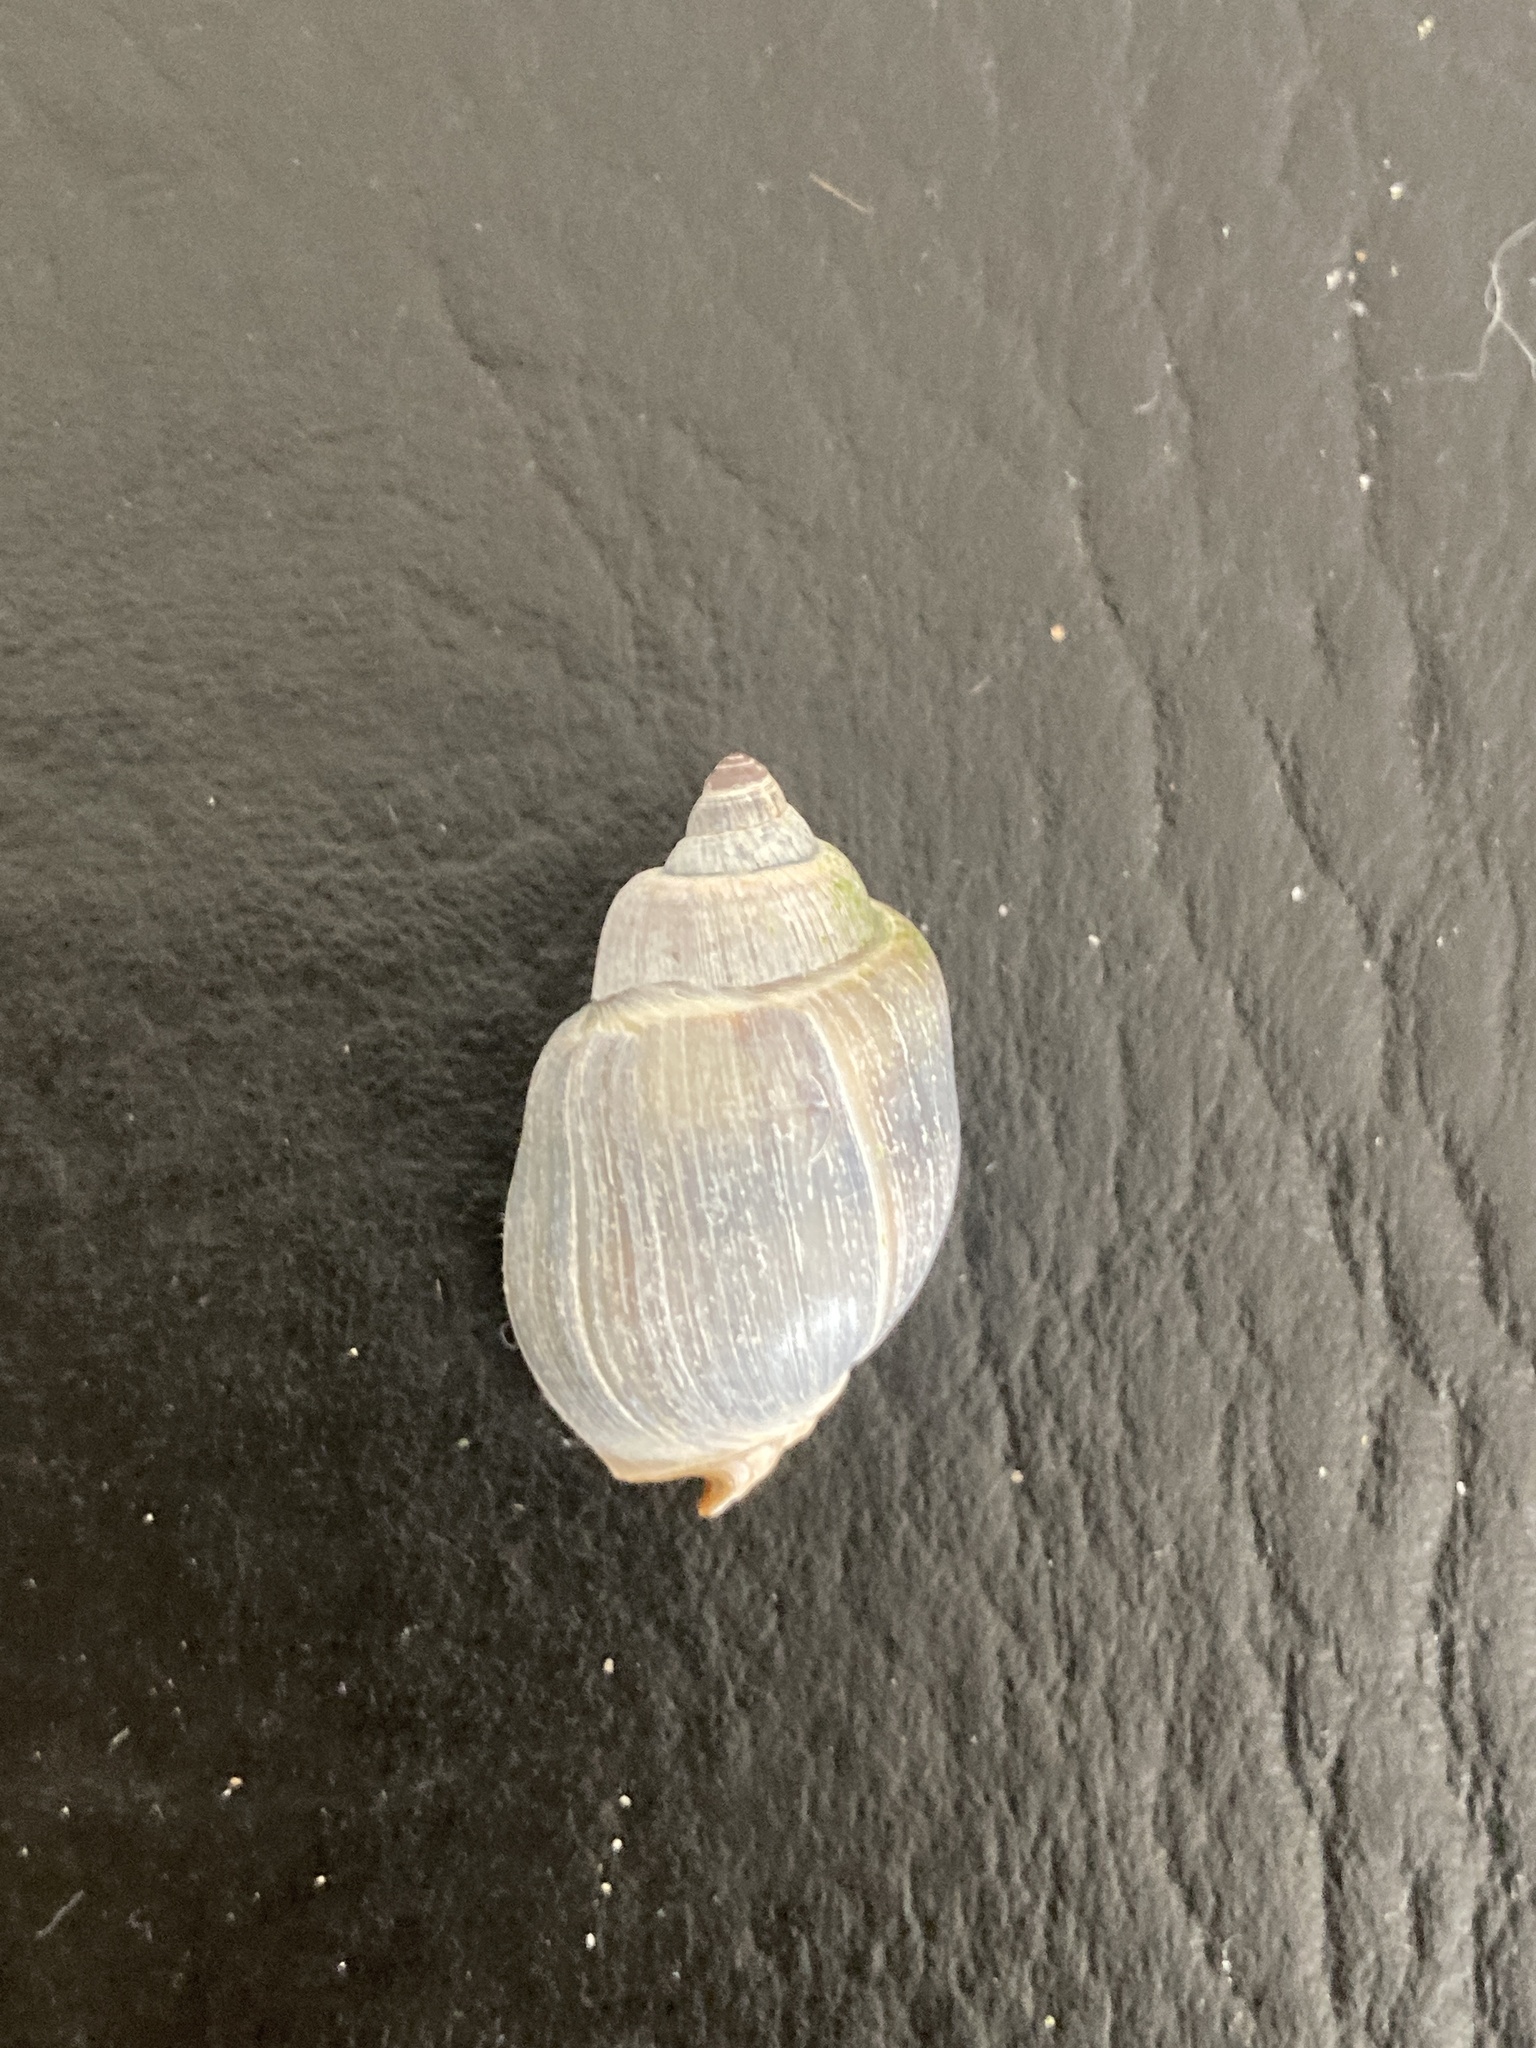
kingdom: Animalia
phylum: Mollusca
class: Gastropoda
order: Neogastropoda
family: Buccinanopsidae
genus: Buccinastrum
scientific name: Buccinastrum deforme
